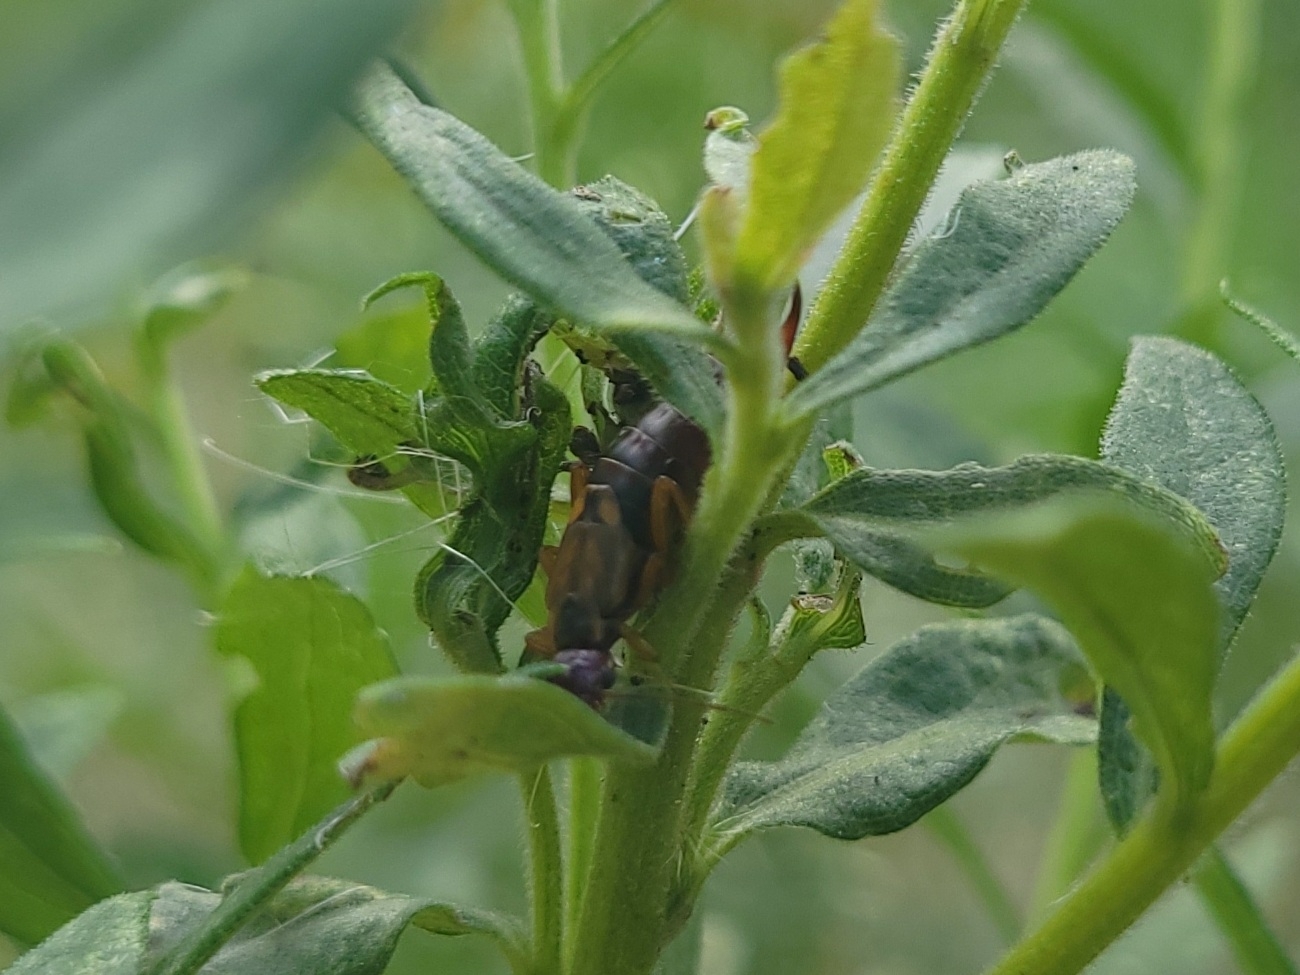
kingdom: Animalia
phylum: Arthropoda
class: Insecta
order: Dermaptera
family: Forficulidae
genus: Forficula
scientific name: Forficula
